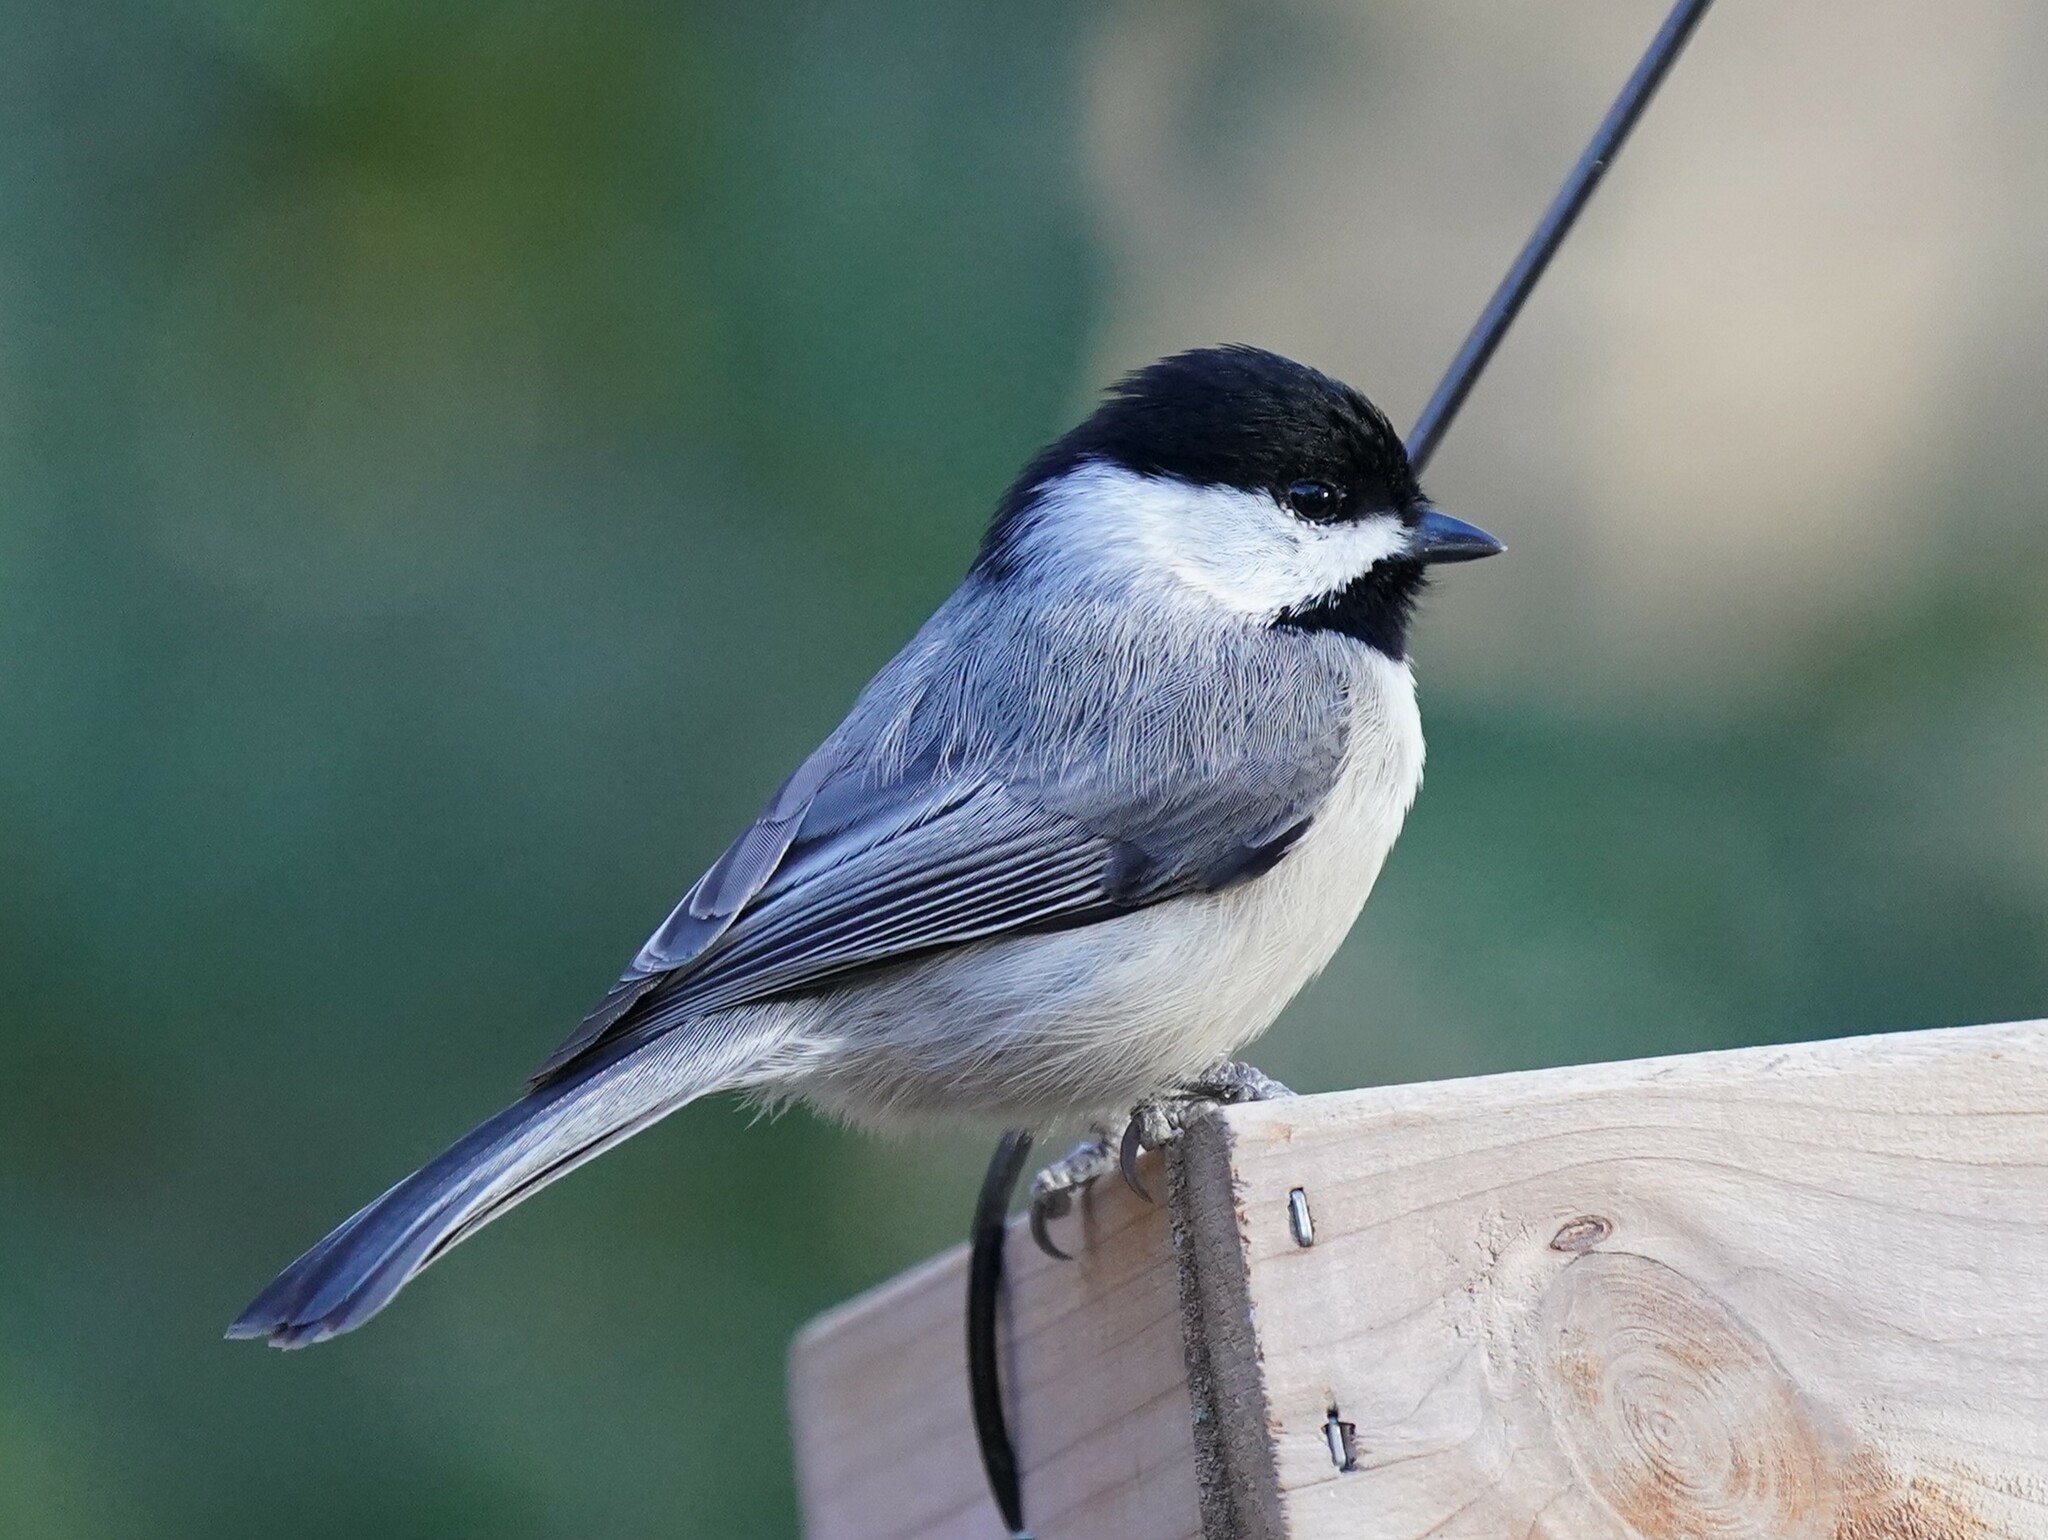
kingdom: Animalia
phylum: Chordata
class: Aves
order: Passeriformes
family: Paridae
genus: Poecile
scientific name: Poecile carolinensis
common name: Carolina chickadee
